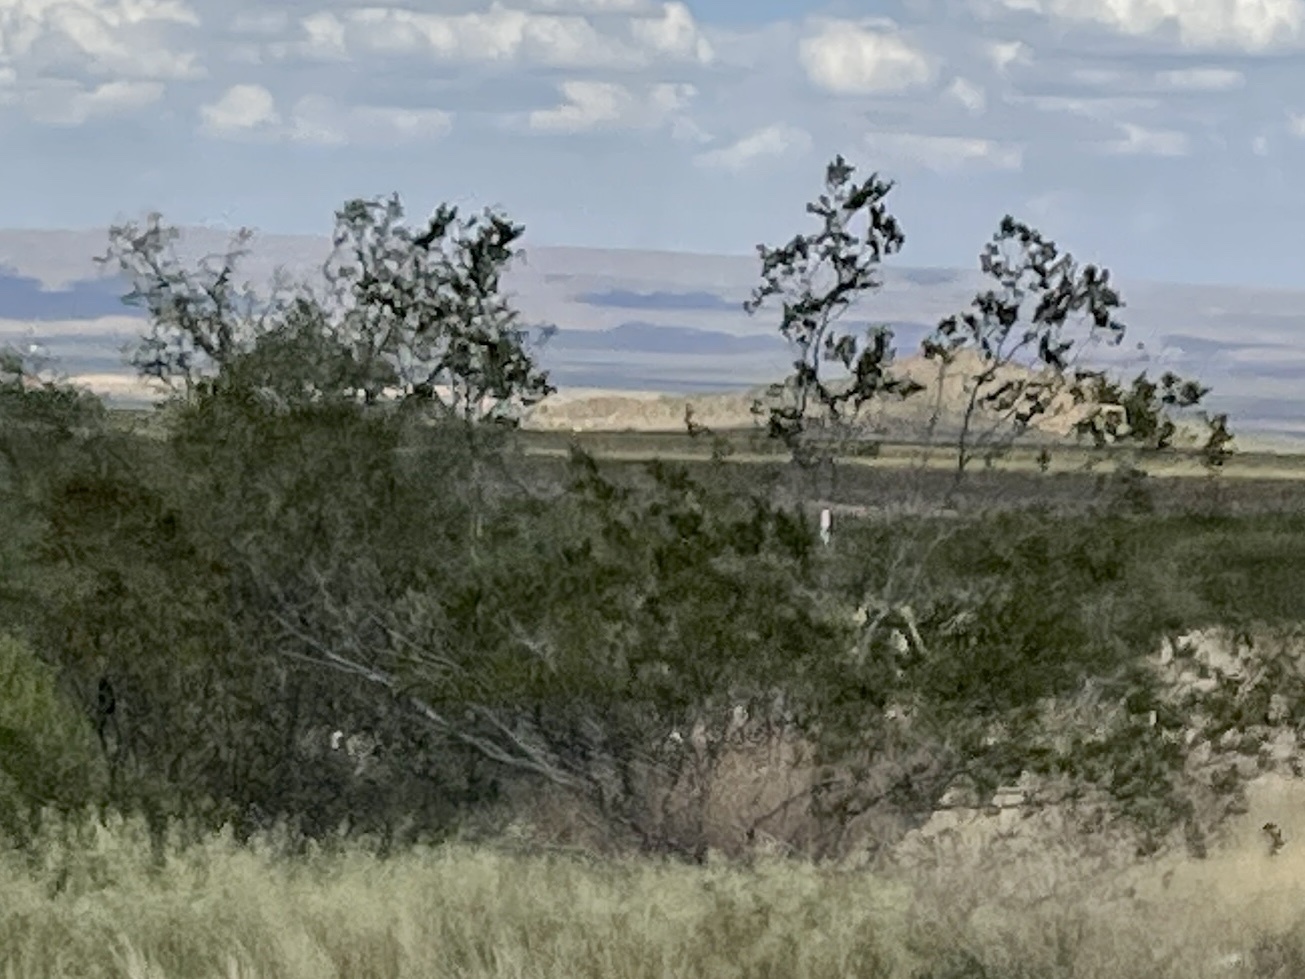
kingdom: Plantae
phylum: Tracheophyta
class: Magnoliopsida
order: Zygophyllales
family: Zygophyllaceae
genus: Larrea
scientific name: Larrea tridentata
